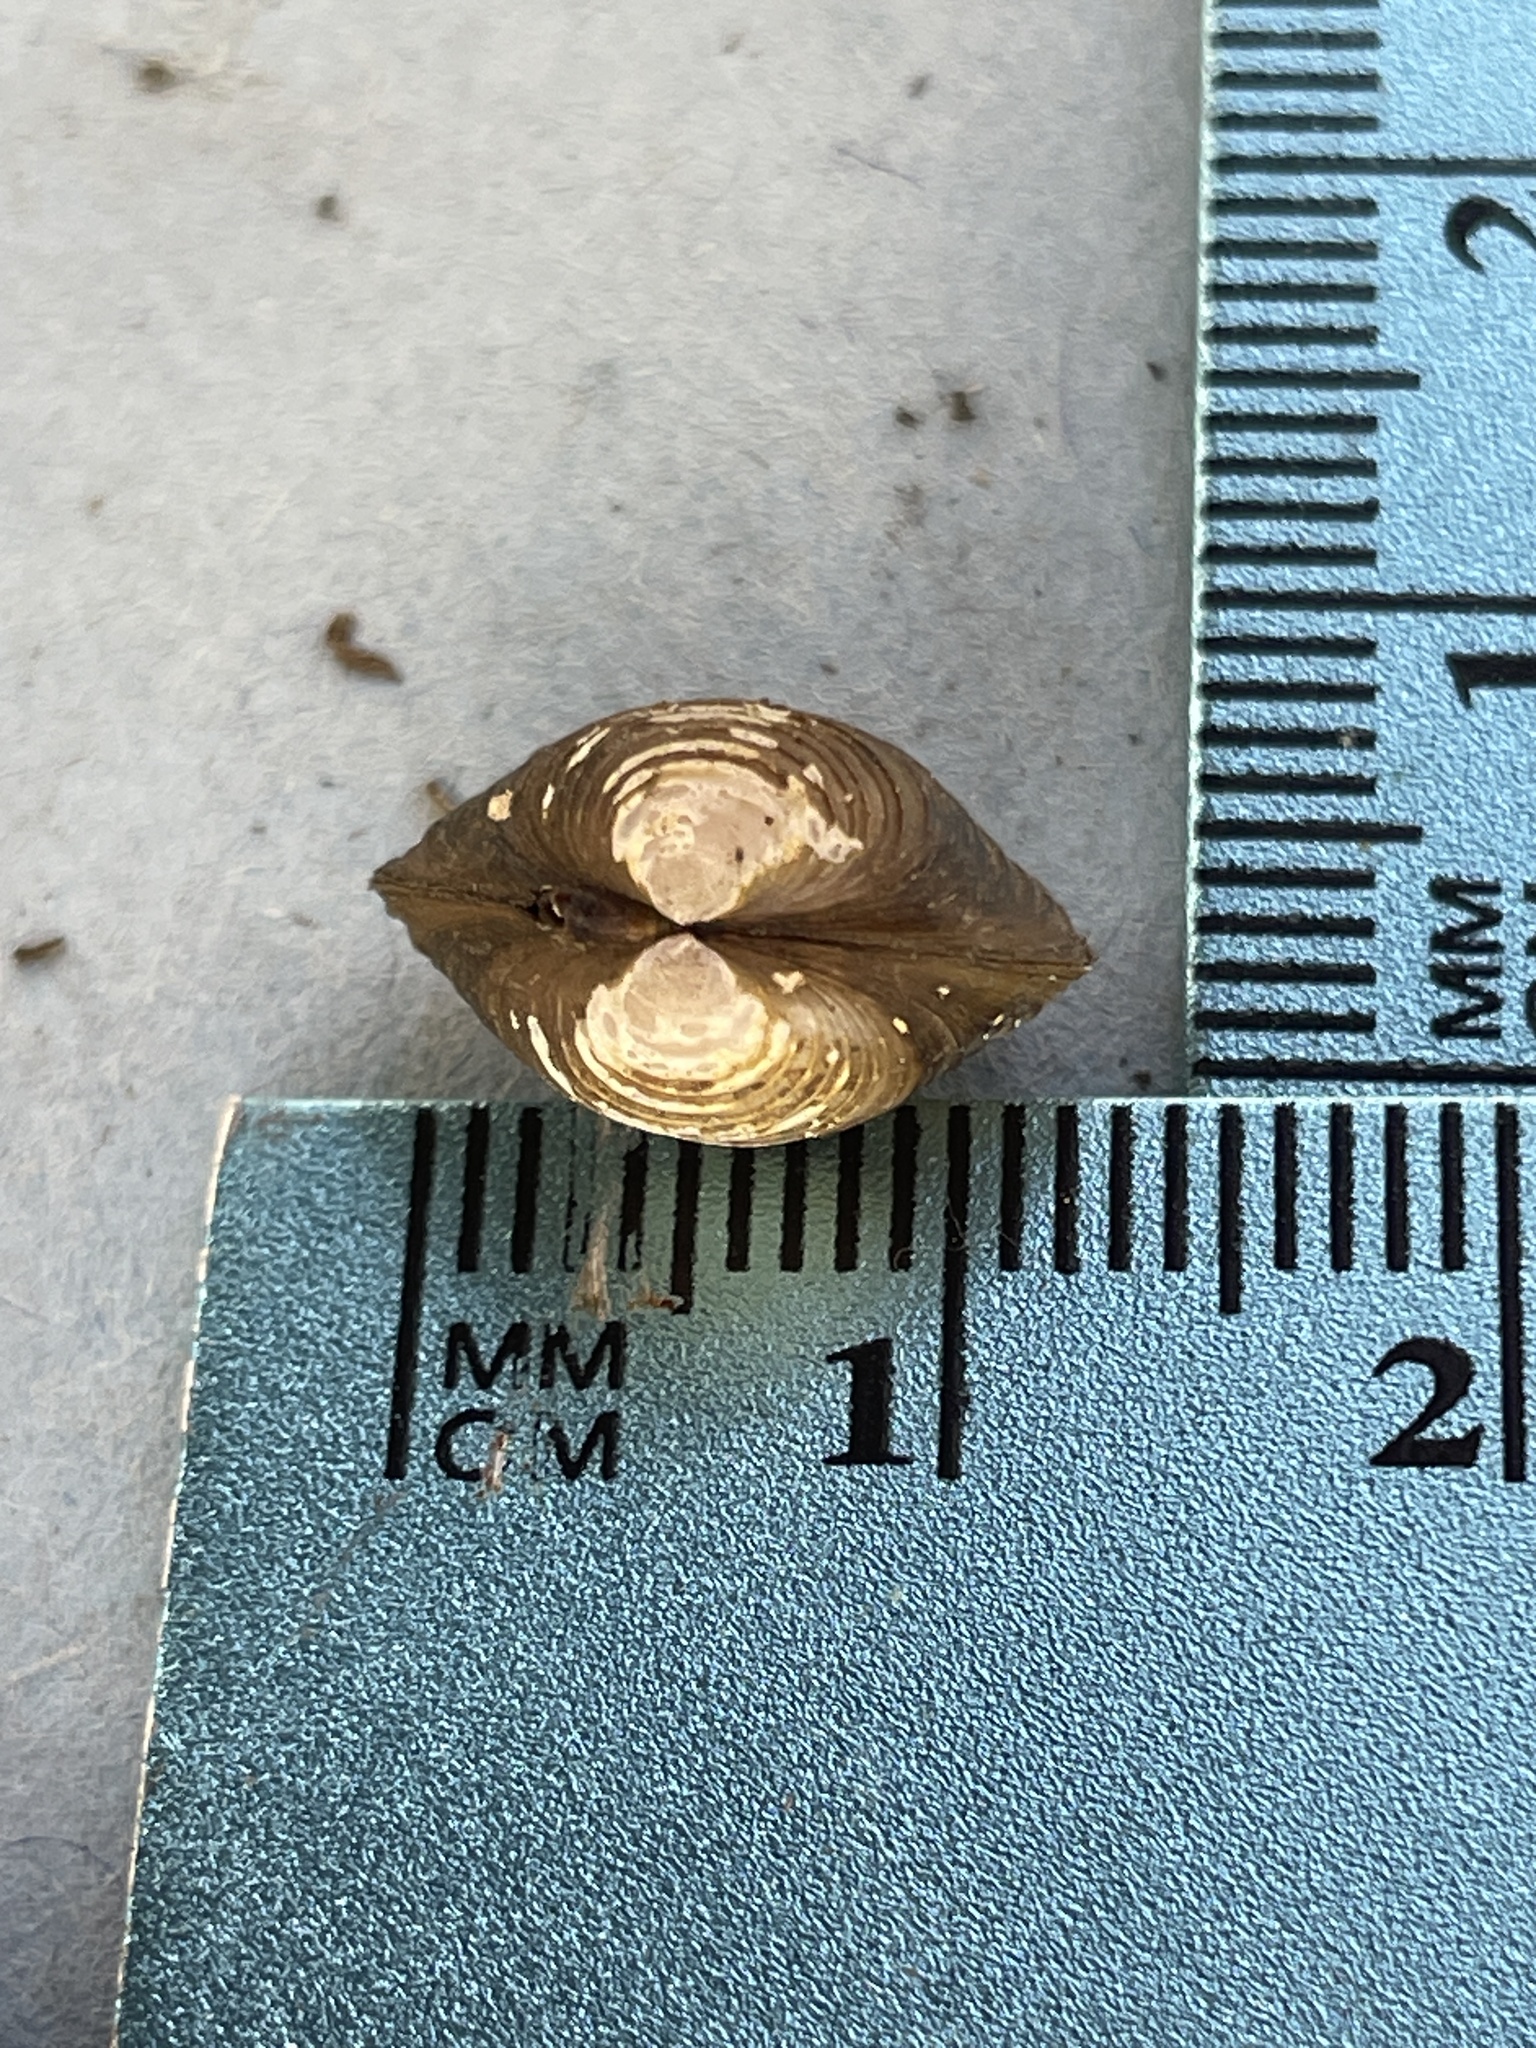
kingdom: Animalia
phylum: Mollusca
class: Bivalvia
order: Venerida
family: Cyrenidae
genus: Corbicula
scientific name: Corbicula fluminea
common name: Asian clam
